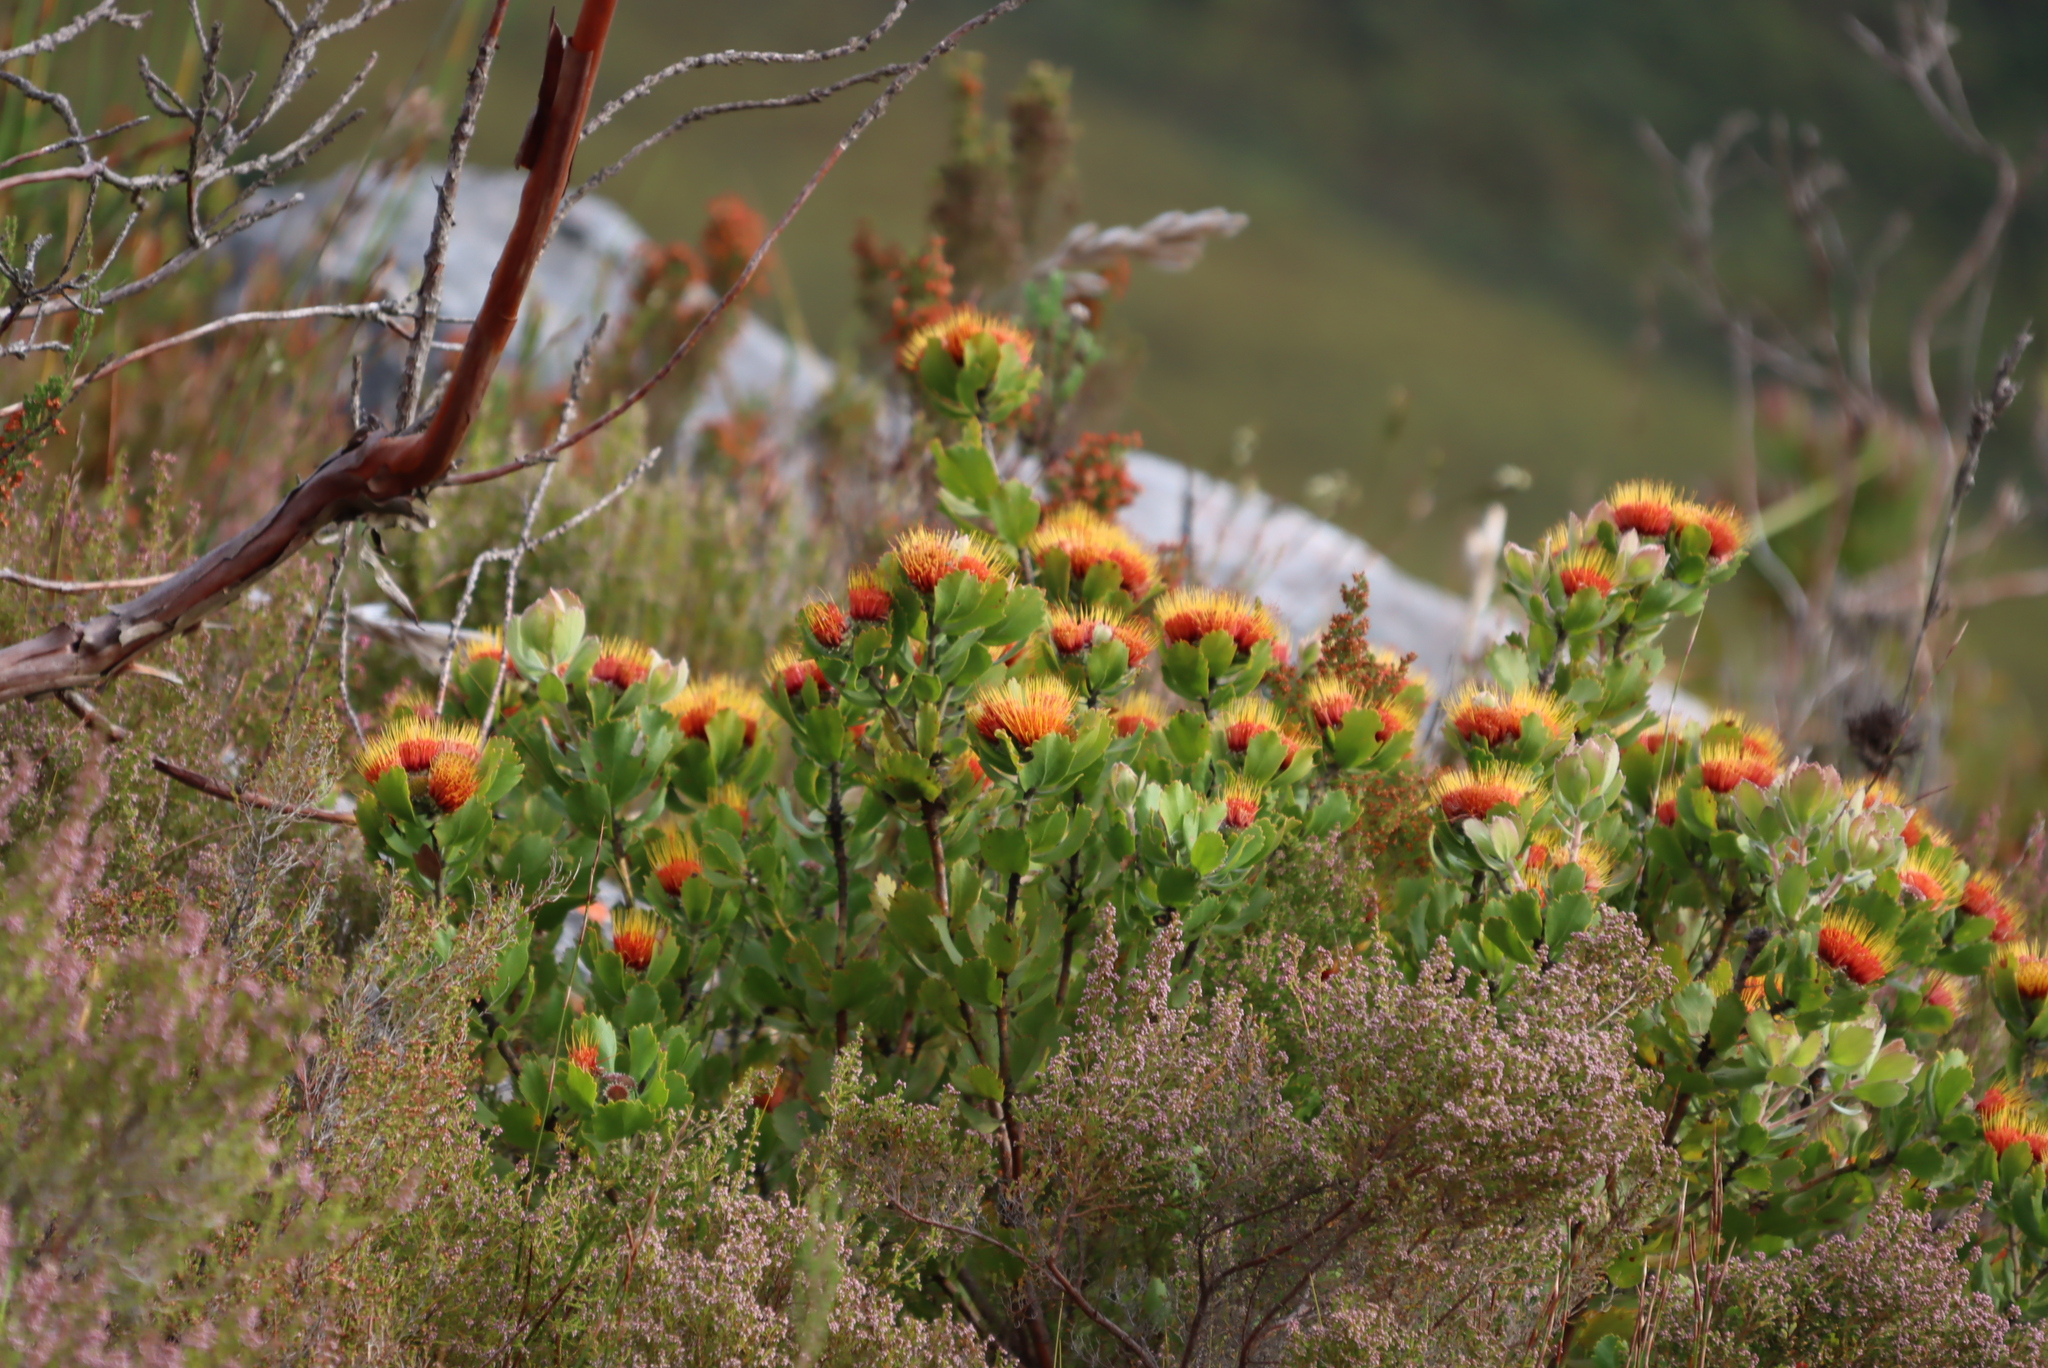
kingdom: Plantae
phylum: Tracheophyta
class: Magnoliopsida
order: Proteales
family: Proteaceae
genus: Leucospermum
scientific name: Leucospermum mundii
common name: Langeberg pincushion
